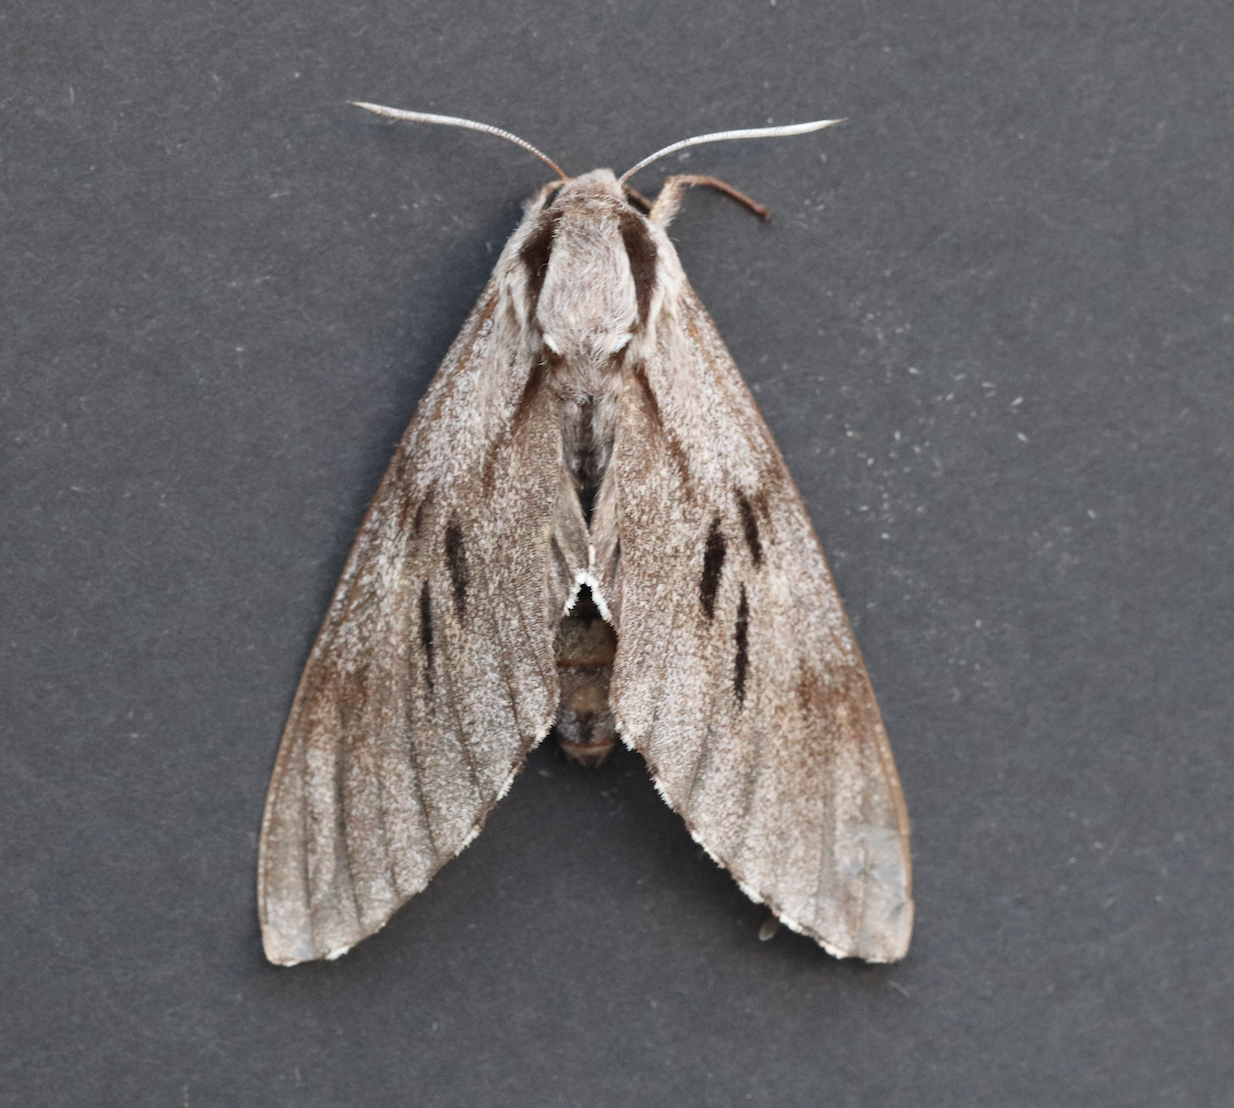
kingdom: Animalia
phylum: Arthropoda
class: Insecta
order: Lepidoptera
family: Sphingidae
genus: Sphinx
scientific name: Sphinx pinastri
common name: Pine hawk-moth
